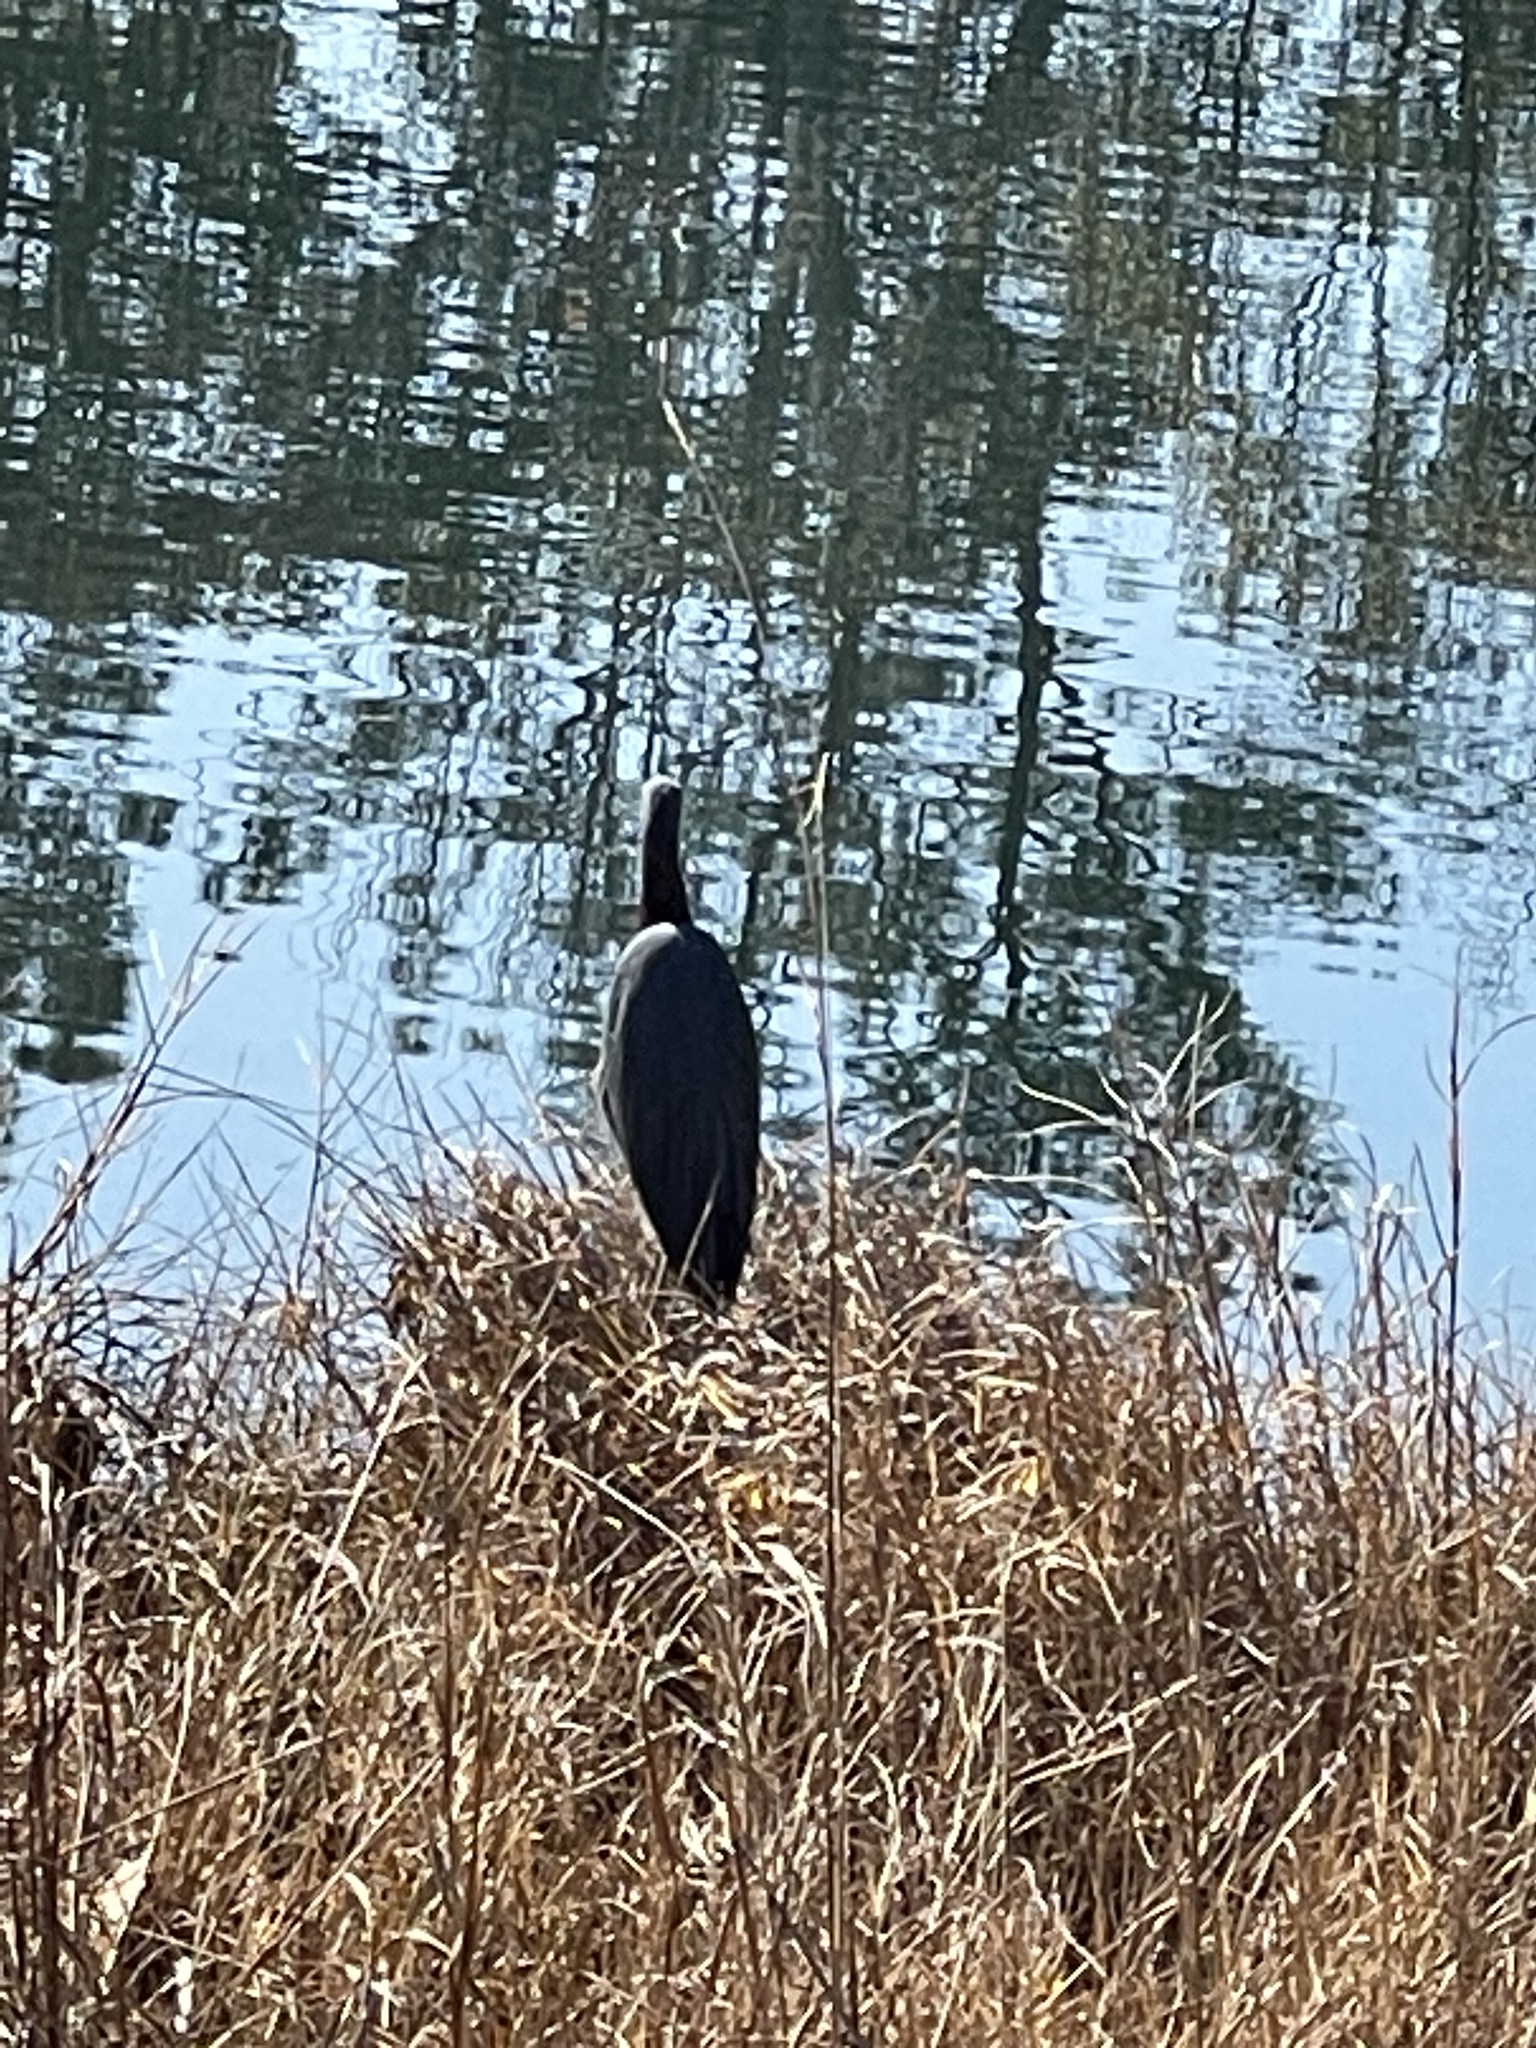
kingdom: Animalia
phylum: Chordata
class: Aves
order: Pelecaniformes
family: Ardeidae
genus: Egretta
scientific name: Egretta caerulea
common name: Little blue heron
